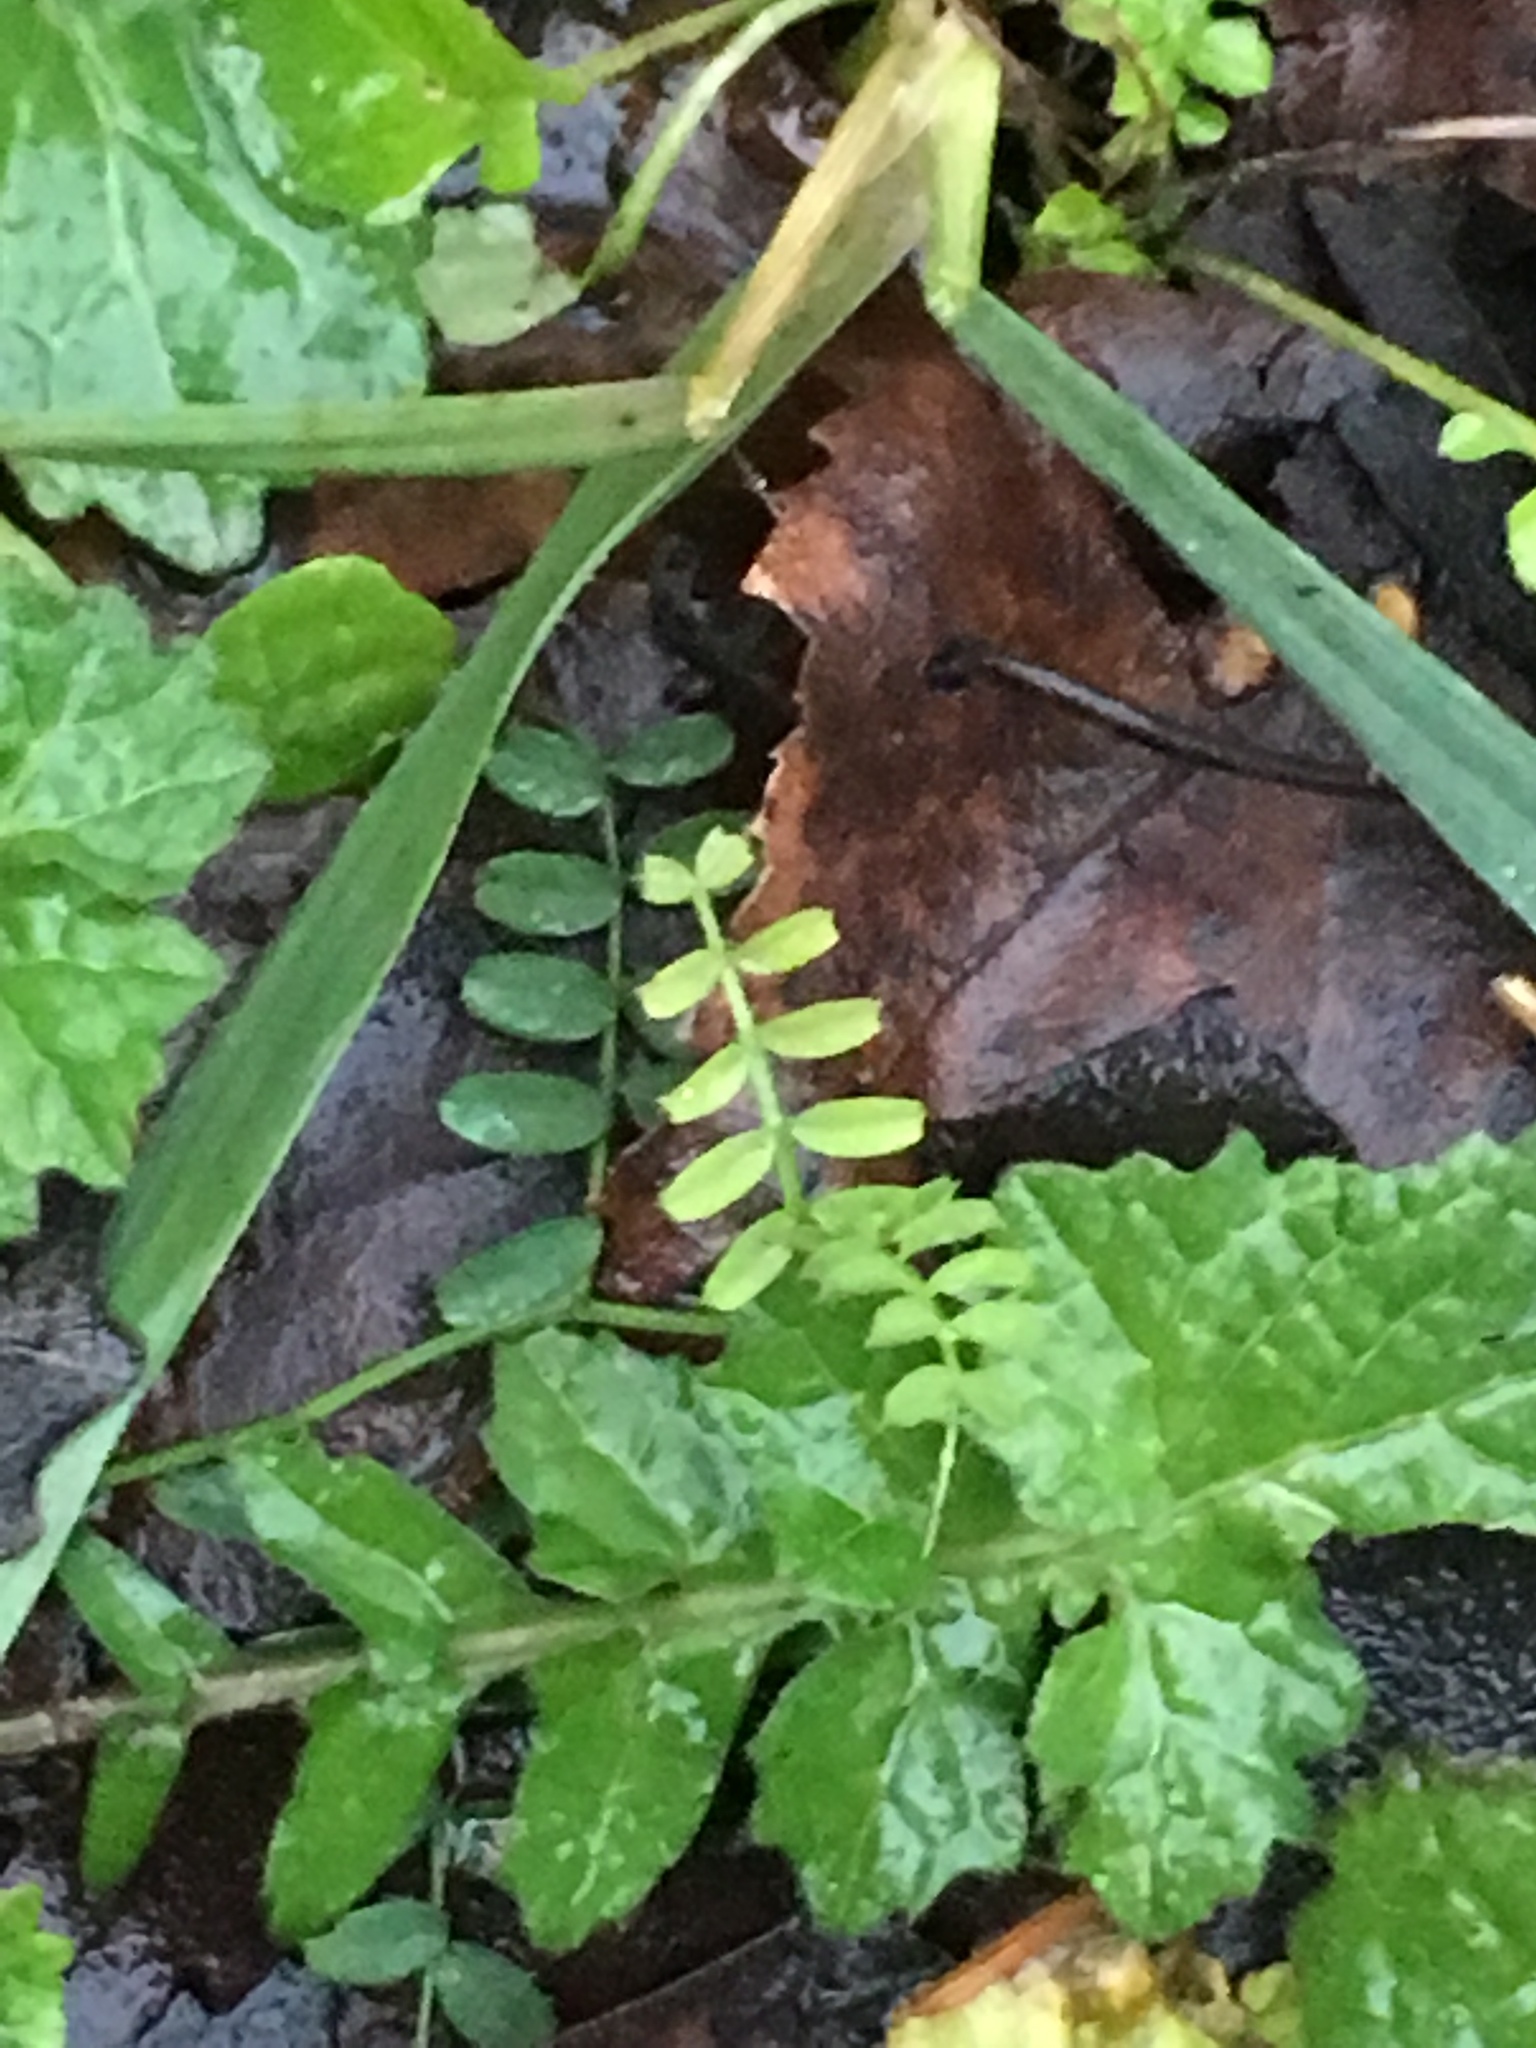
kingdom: Plantae
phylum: Tracheophyta
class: Magnoliopsida
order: Fabales
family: Fabaceae
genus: Coronilla
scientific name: Coronilla varia
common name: Crownvetch
